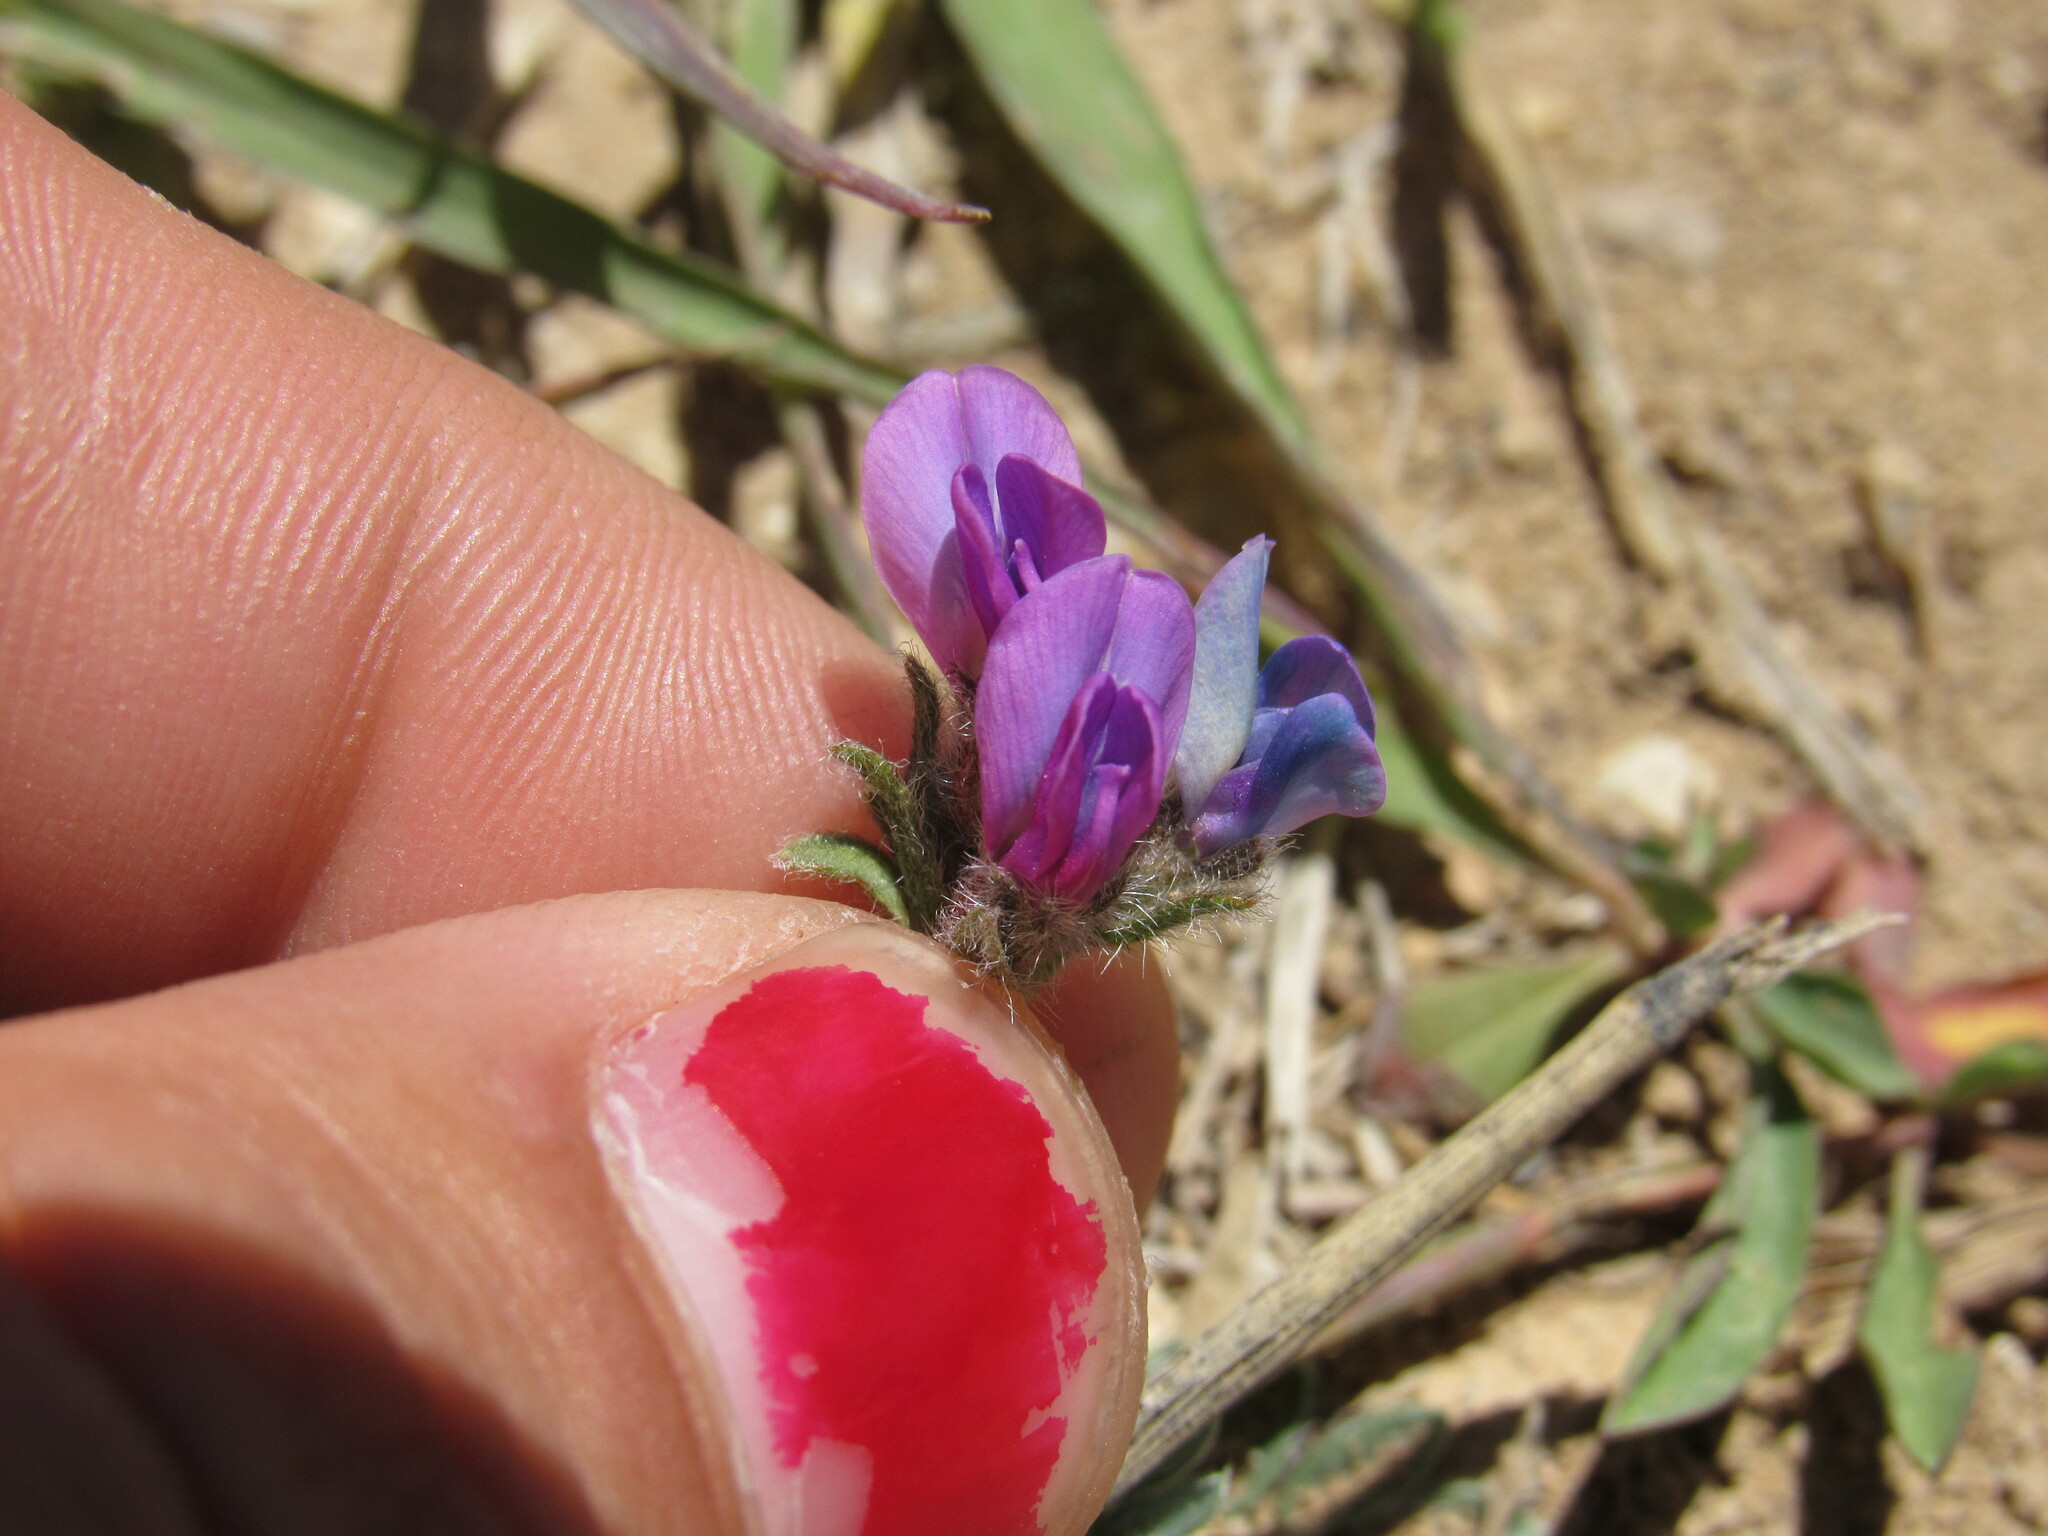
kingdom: Plantae
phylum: Tracheophyta
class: Magnoliopsida
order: Fabales
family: Fabaceae
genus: Oxytropis
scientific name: Oxytropis oreophila
